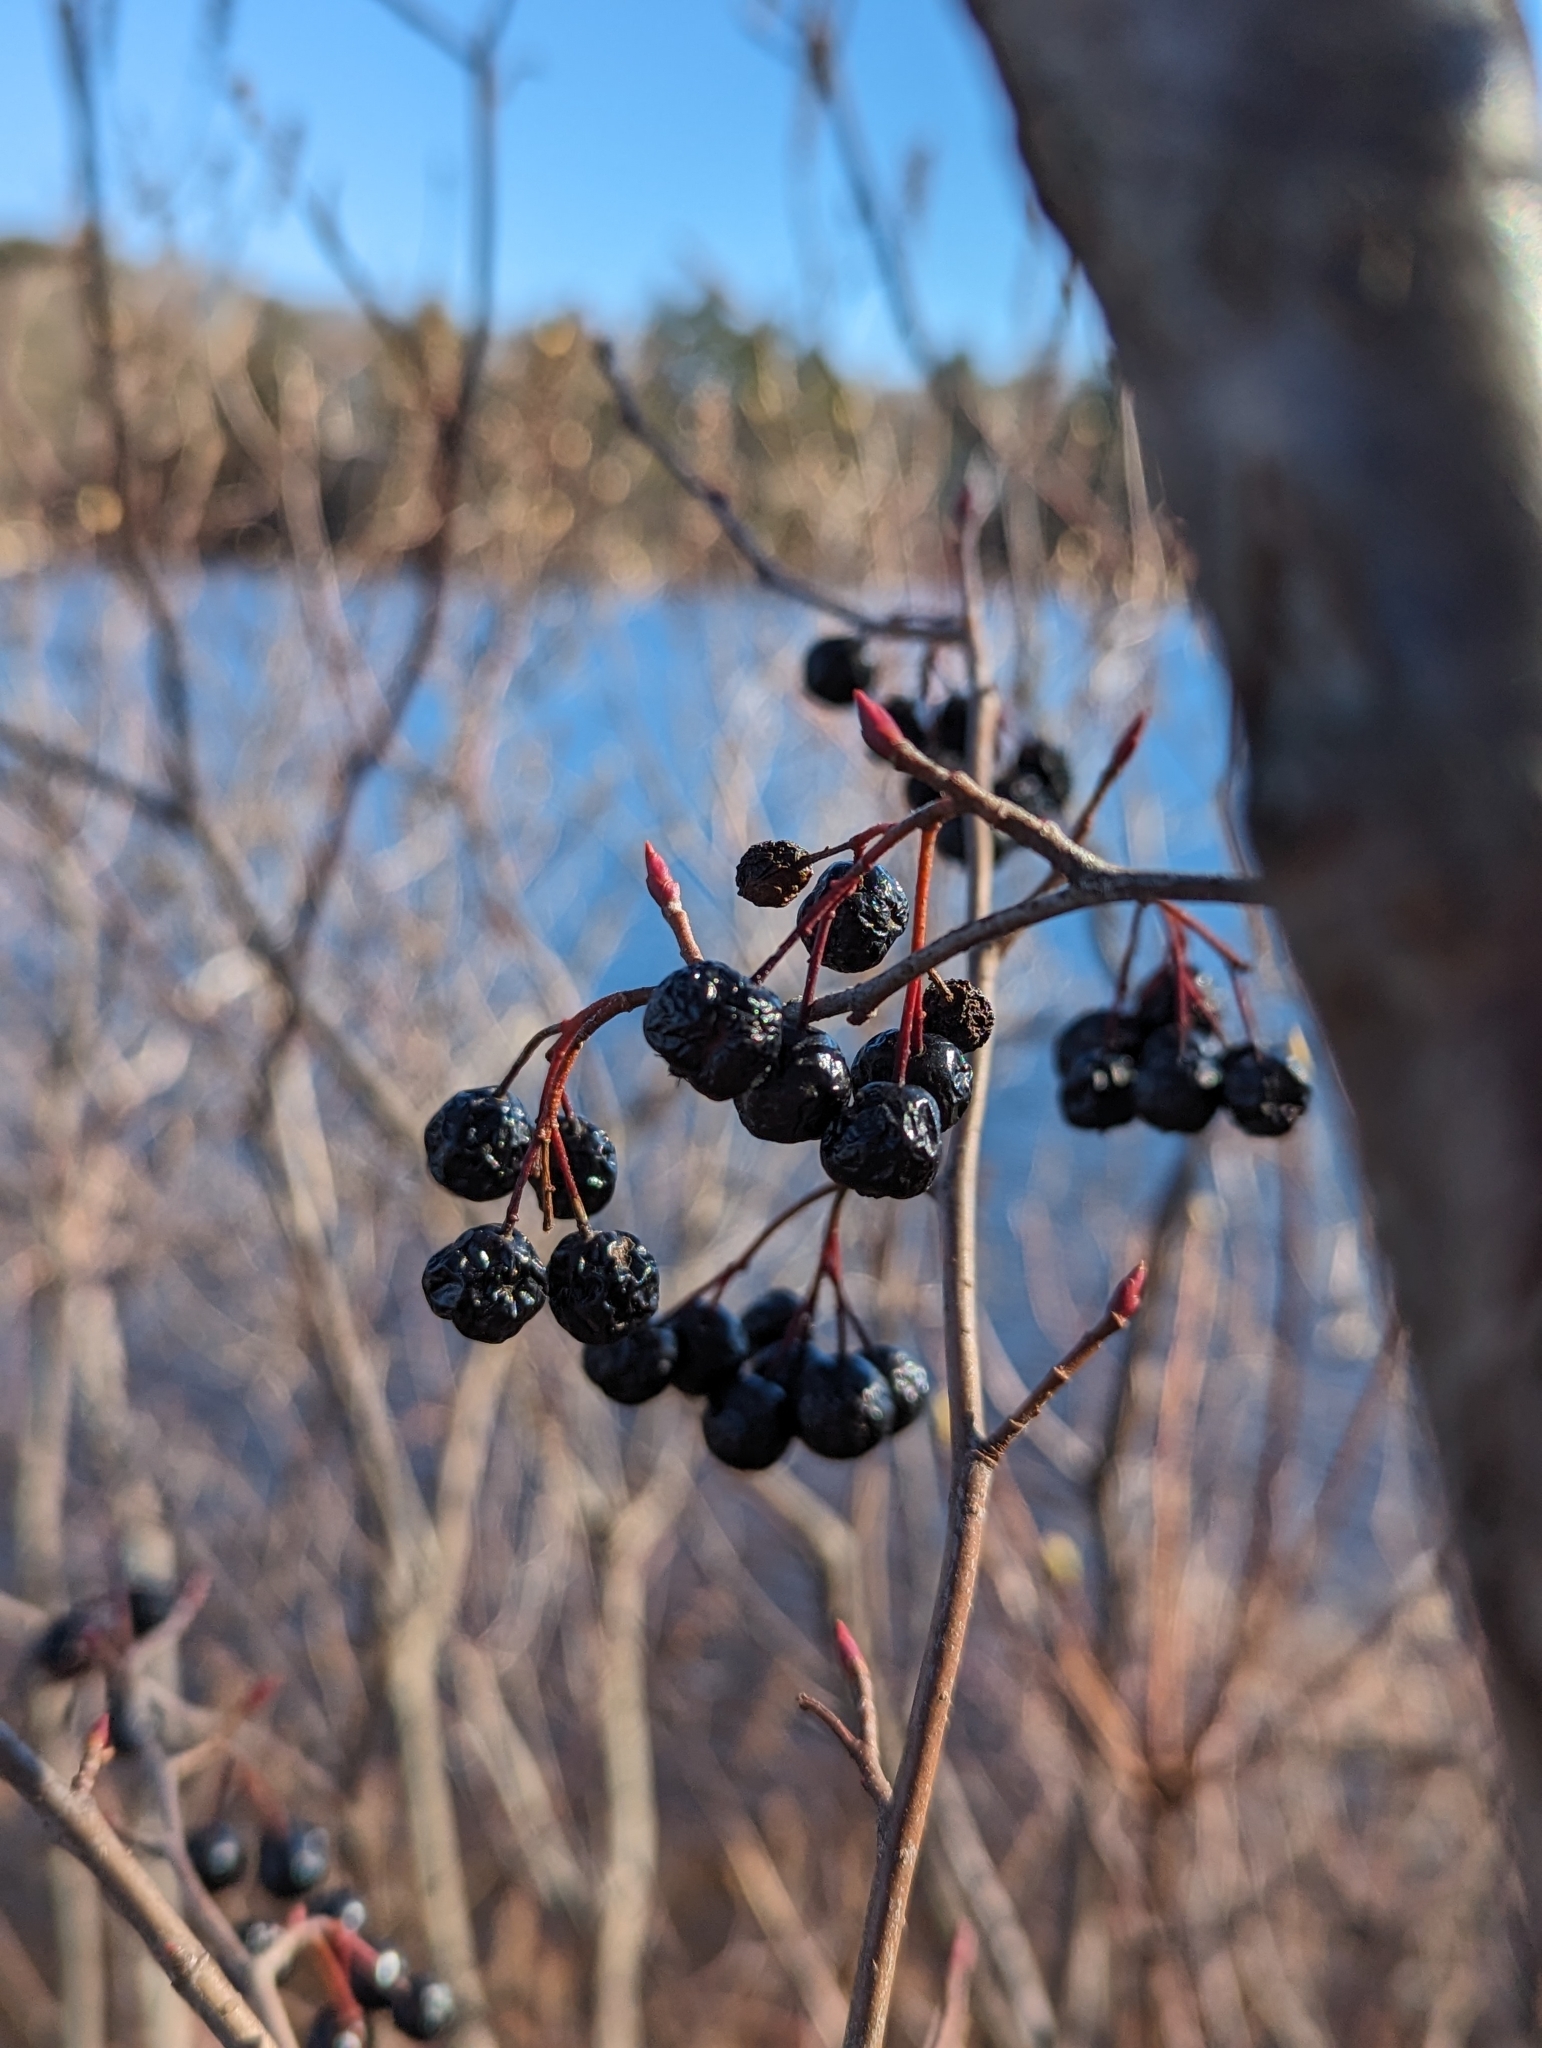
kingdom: Plantae
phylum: Tracheophyta
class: Magnoliopsida
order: Rosales
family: Rosaceae
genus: Aronia
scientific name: Aronia melanocarpa
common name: Black chokeberry
